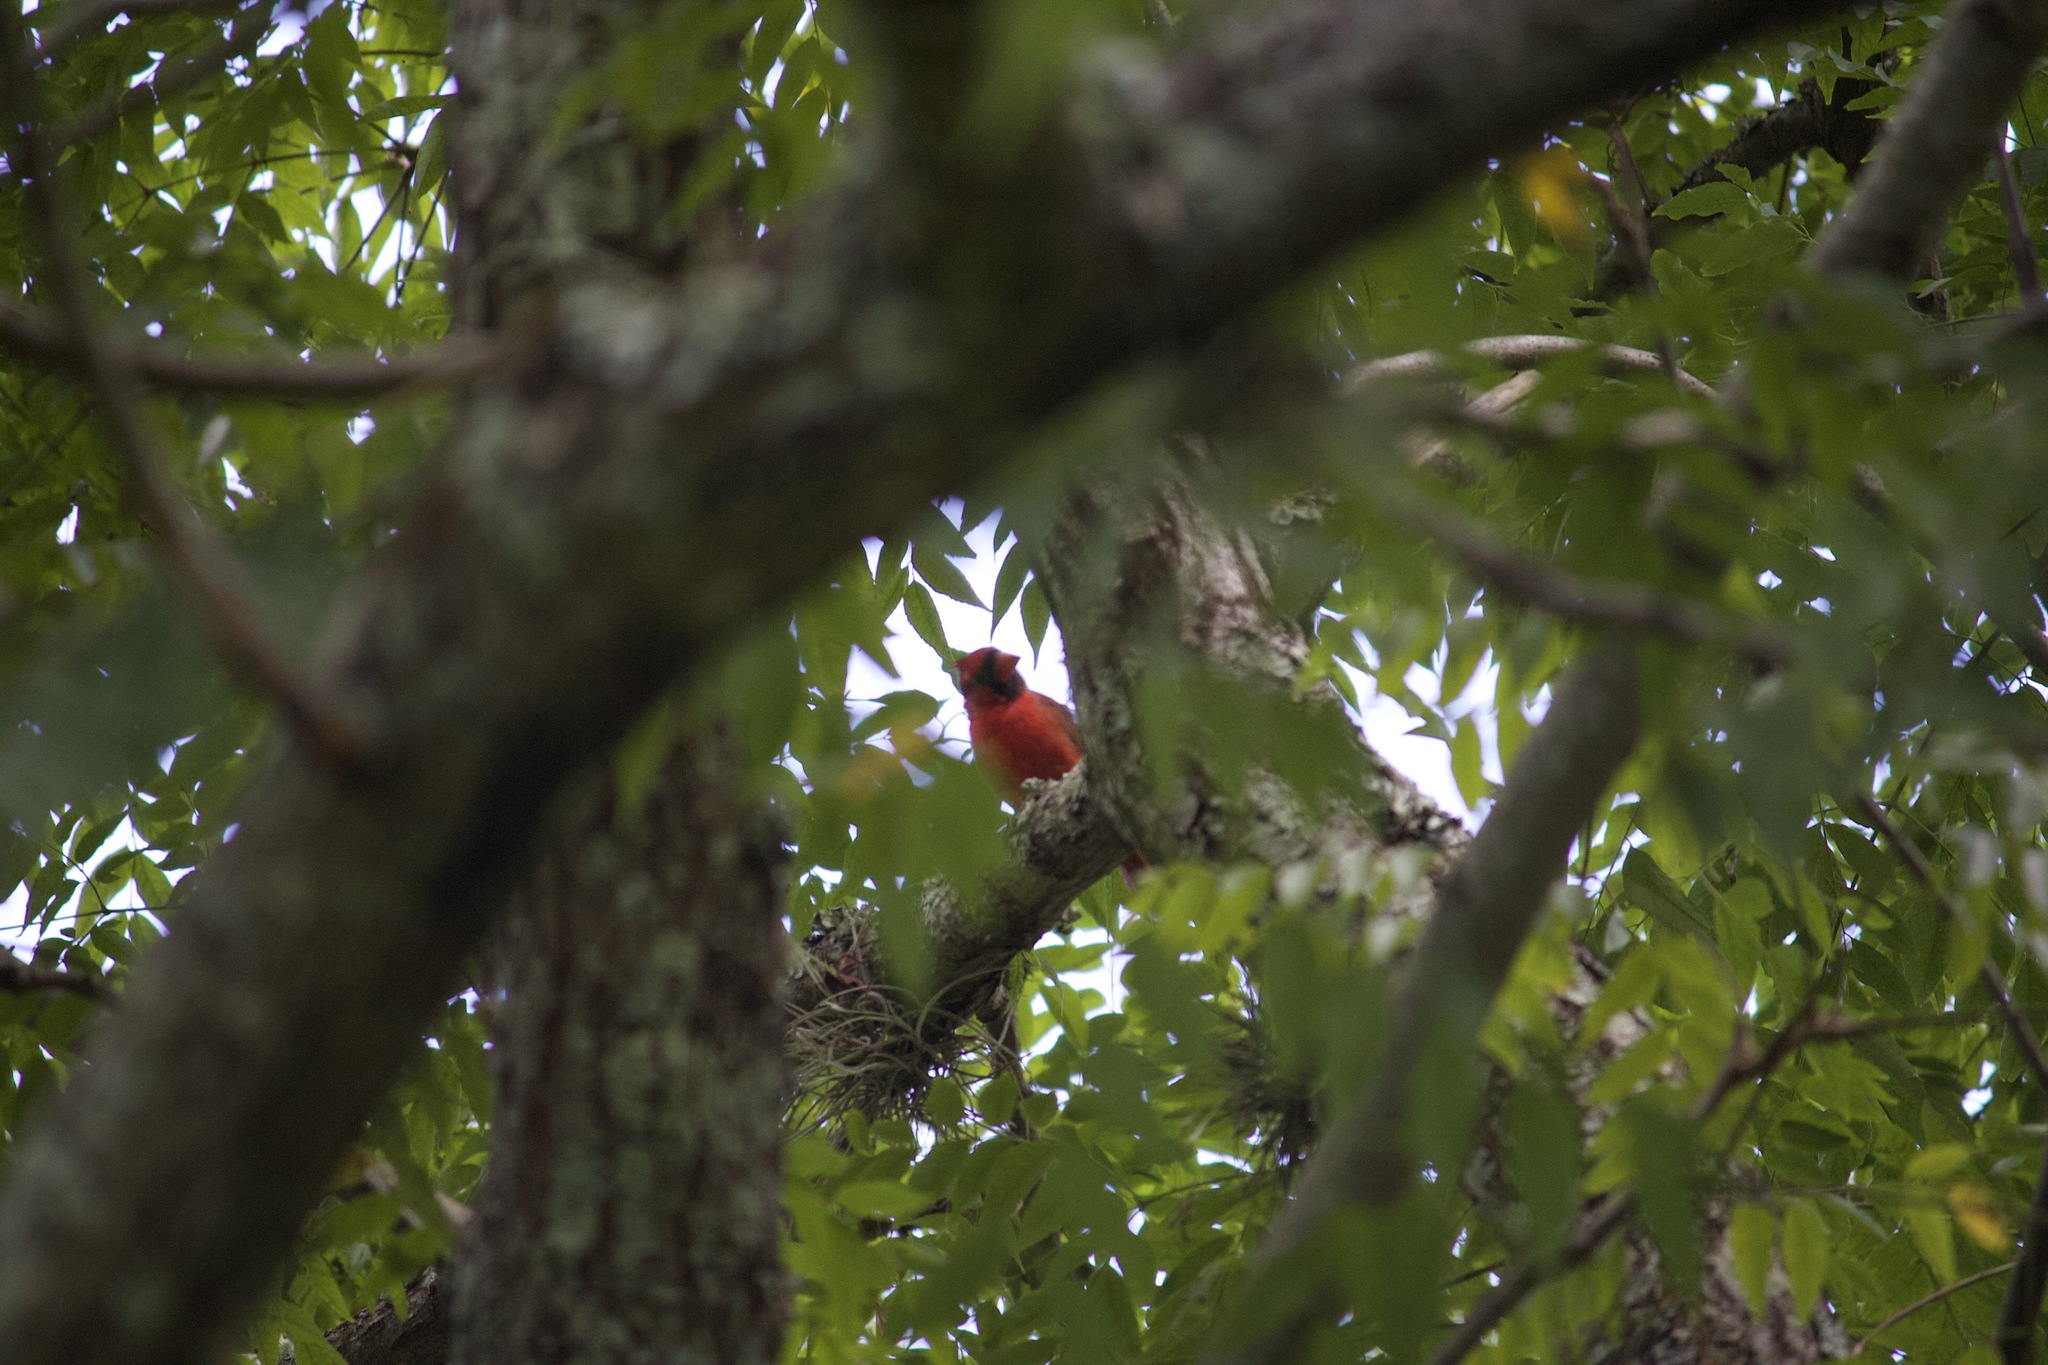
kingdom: Animalia
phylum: Chordata
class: Aves
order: Passeriformes
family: Cardinalidae
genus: Cardinalis
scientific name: Cardinalis cardinalis
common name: Northern cardinal
